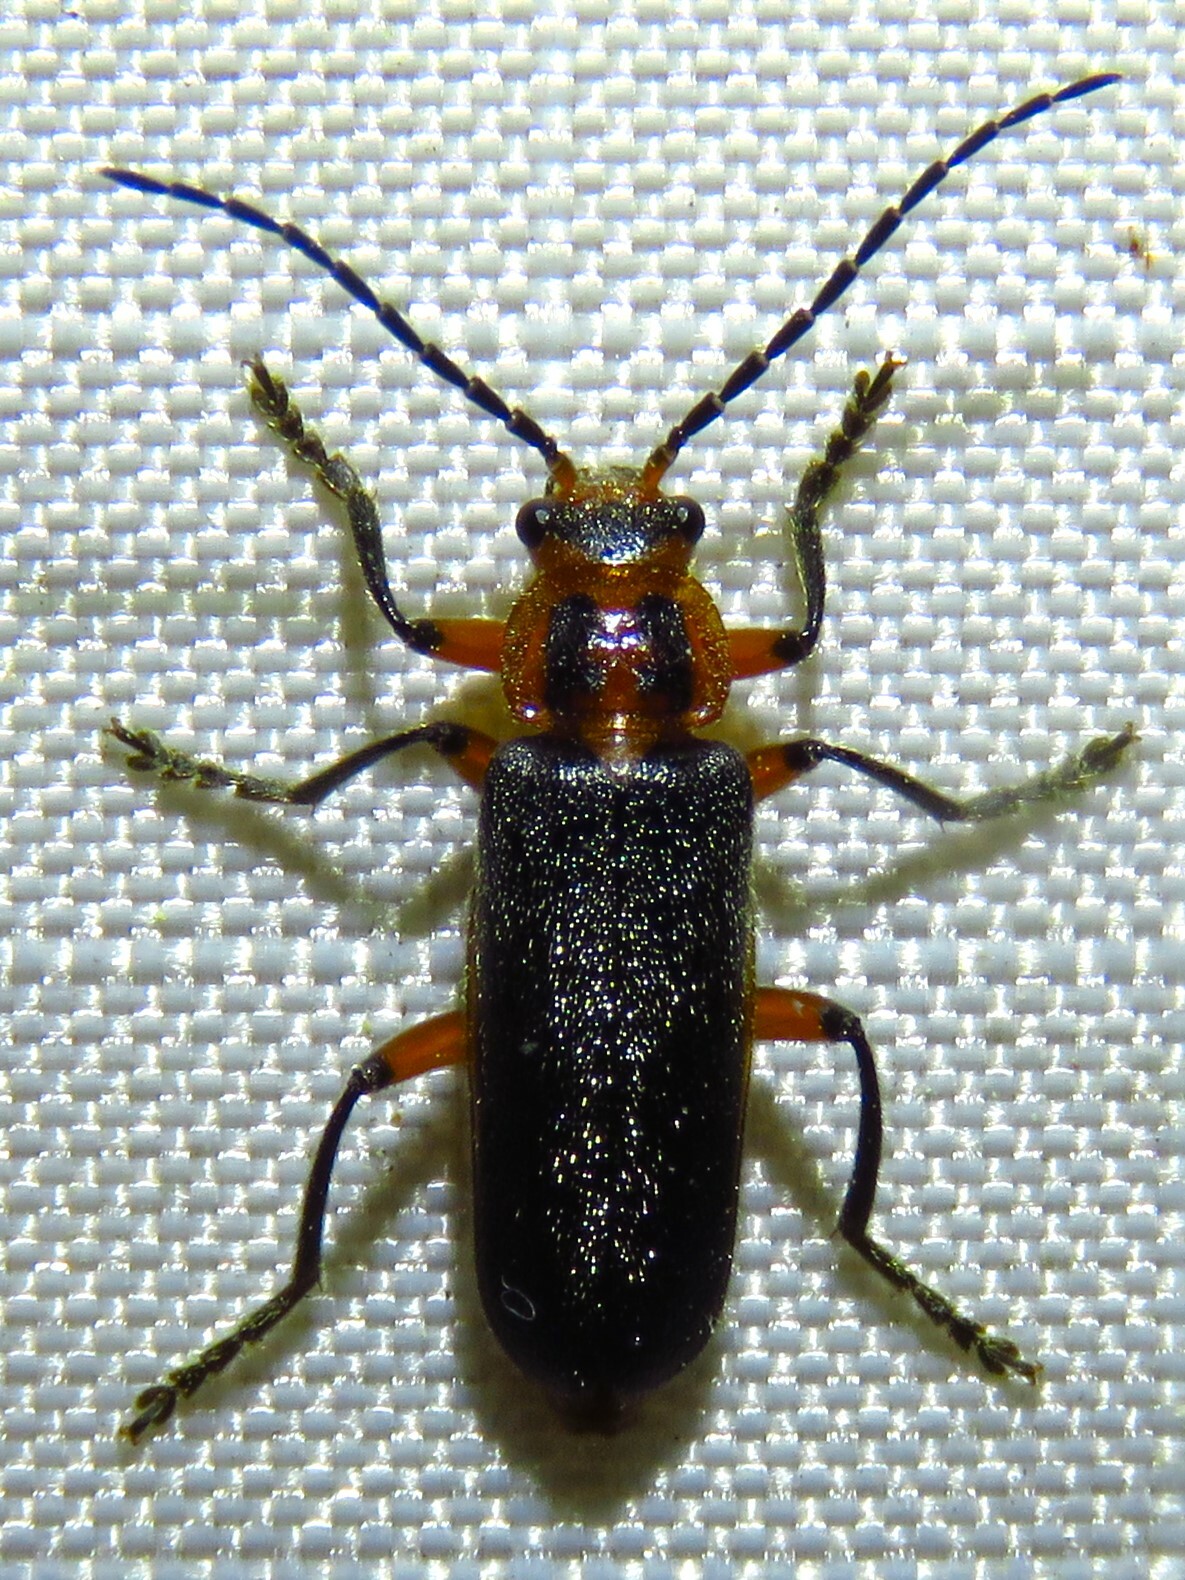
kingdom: Animalia
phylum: Arthropoda
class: Insecta
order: Coleoptera
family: Cantharidae
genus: Atalantycha
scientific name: Atalantycha bilineata
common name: Two-lined leatherwing
